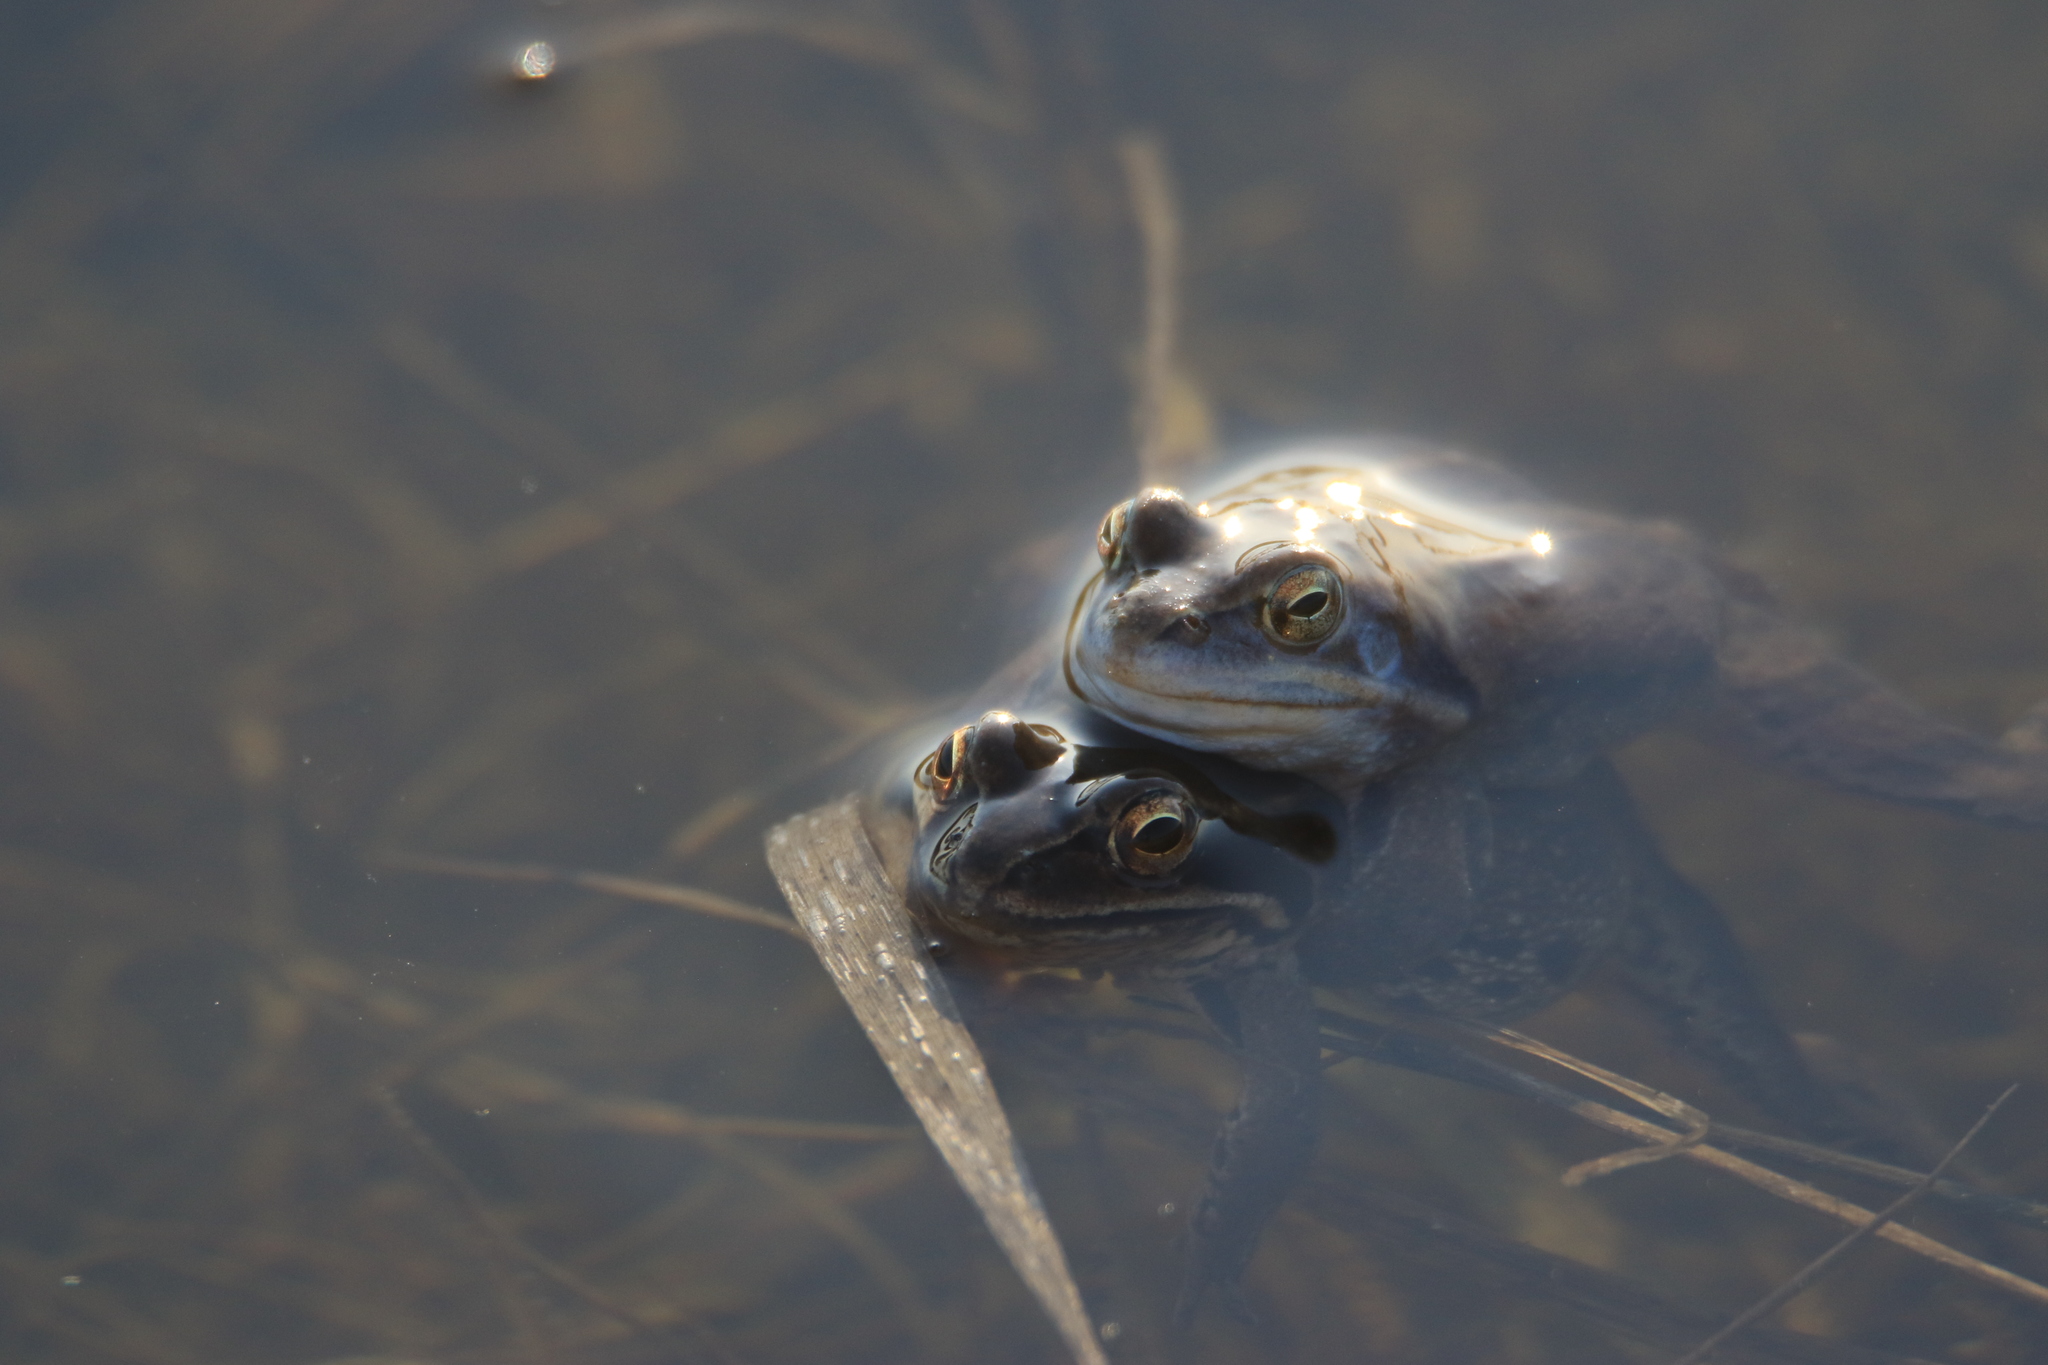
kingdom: Animalia
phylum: Chordata
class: Amphibia
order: Anura
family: Ranidae
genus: Rana
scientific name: Rana arvalis
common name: Moor frog
